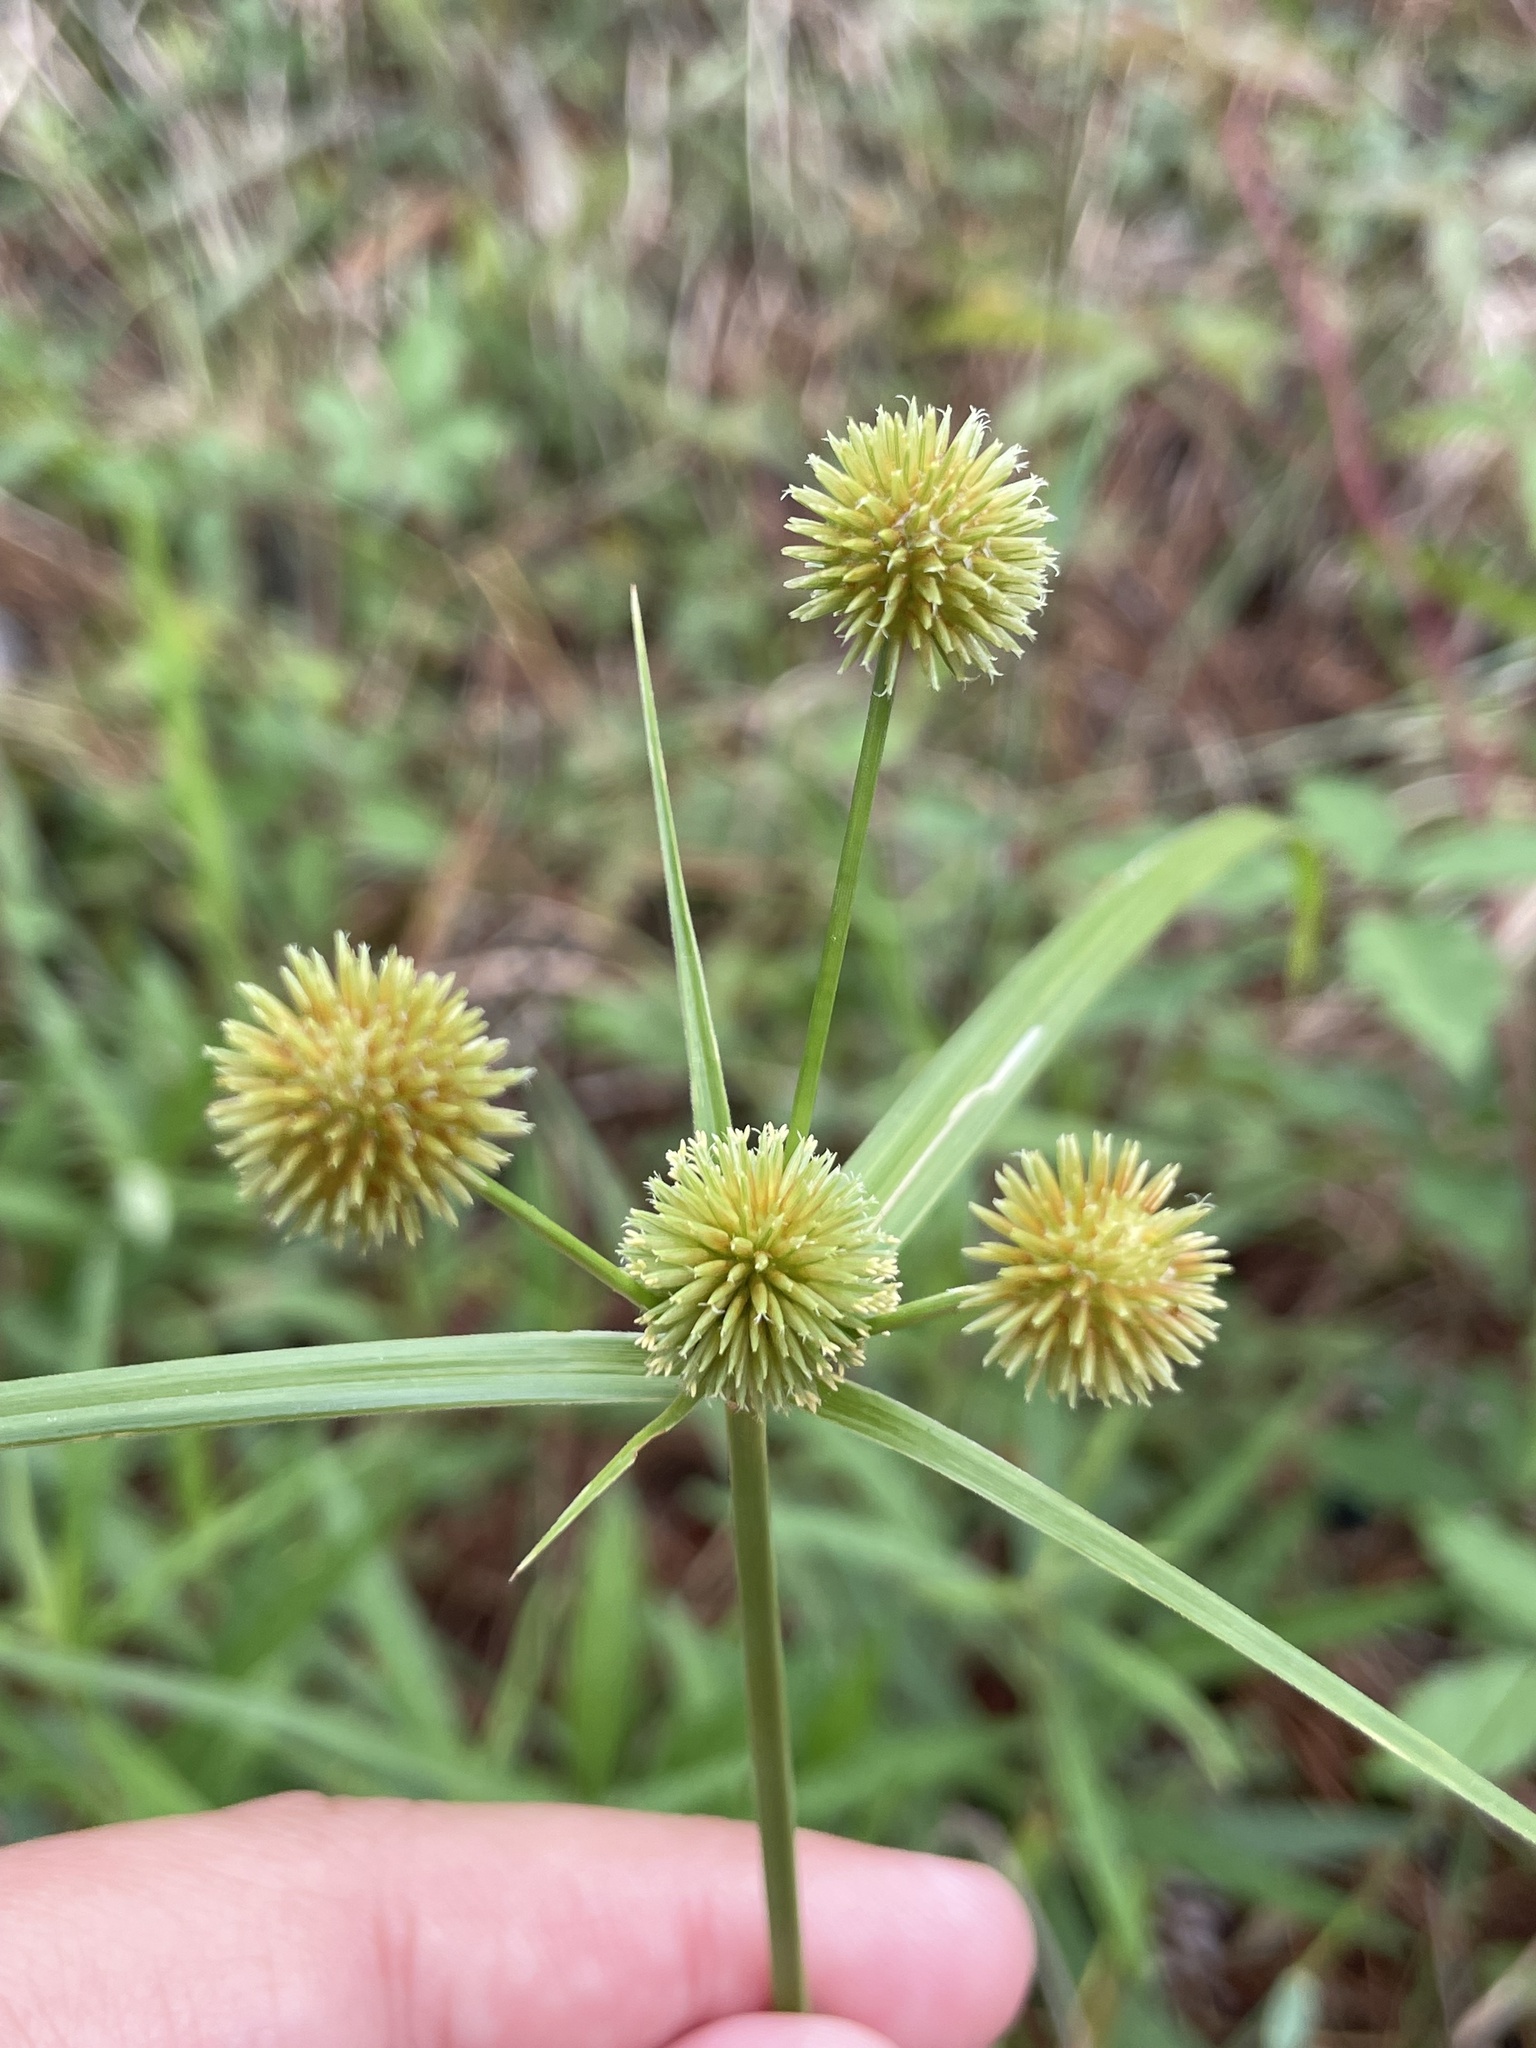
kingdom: Plantae
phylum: Tracheophyta
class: Liliopsida
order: Poales
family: Cyperaceae
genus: Cyperus
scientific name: Cyperus echinatus
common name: Teasel sedge
